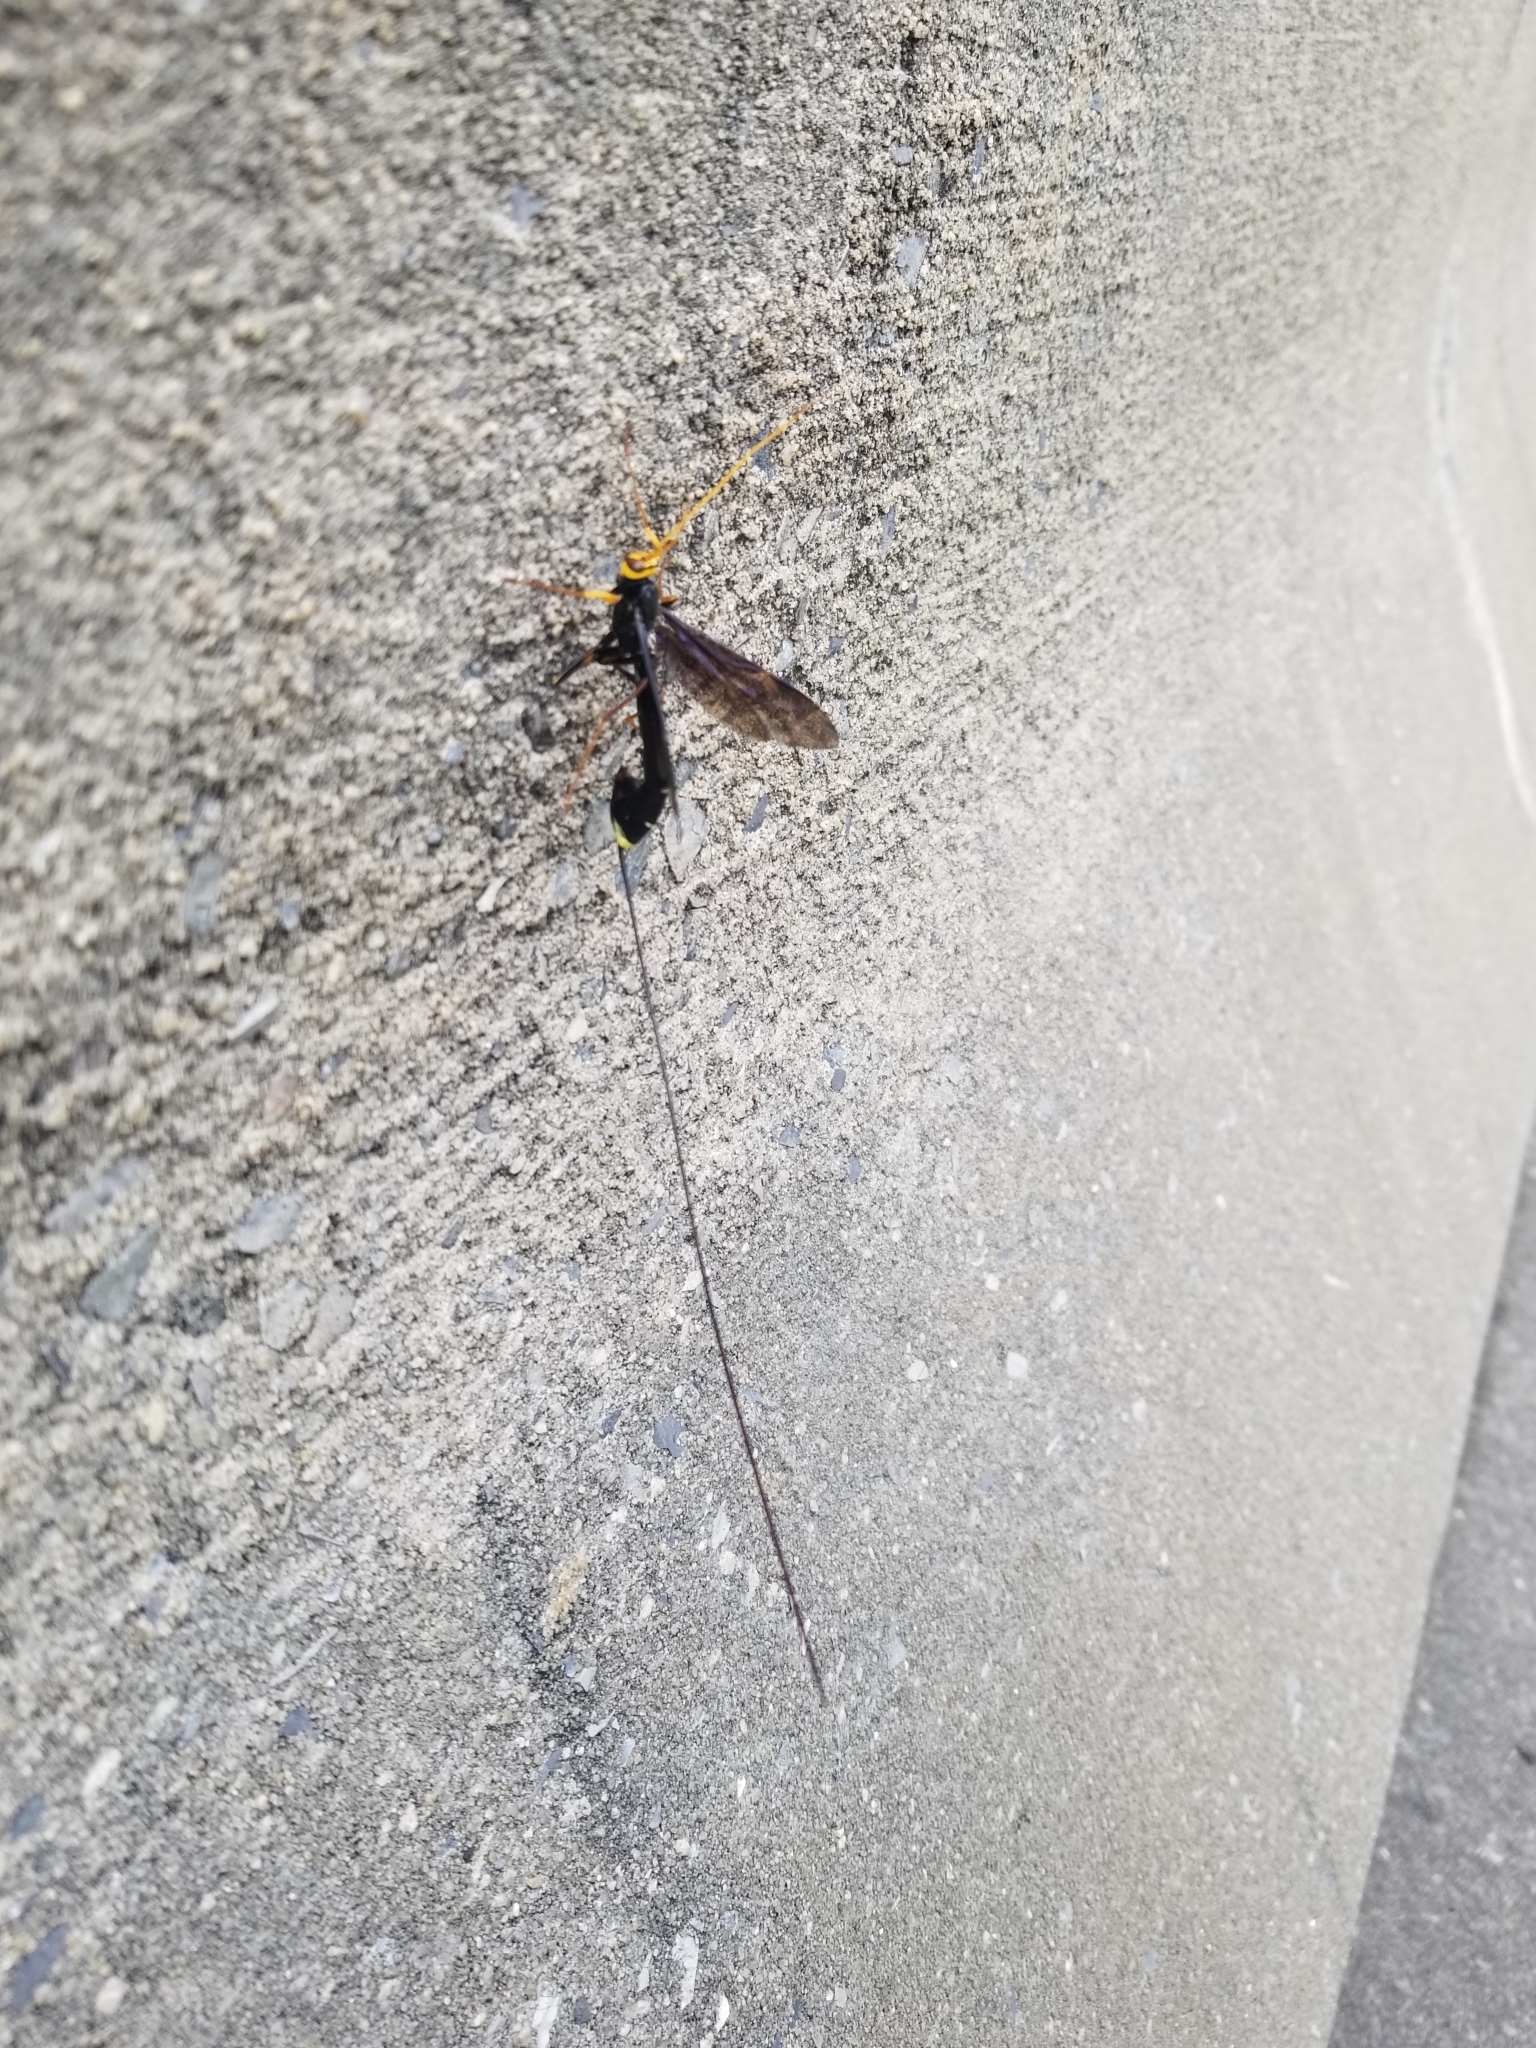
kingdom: Animalia
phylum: Arthropoda
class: Insecta
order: Hymenoptera
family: Ichneumonidae
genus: Megarhyssa
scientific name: Megarhyssa atrata
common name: Black giant ichneumonid wasp
